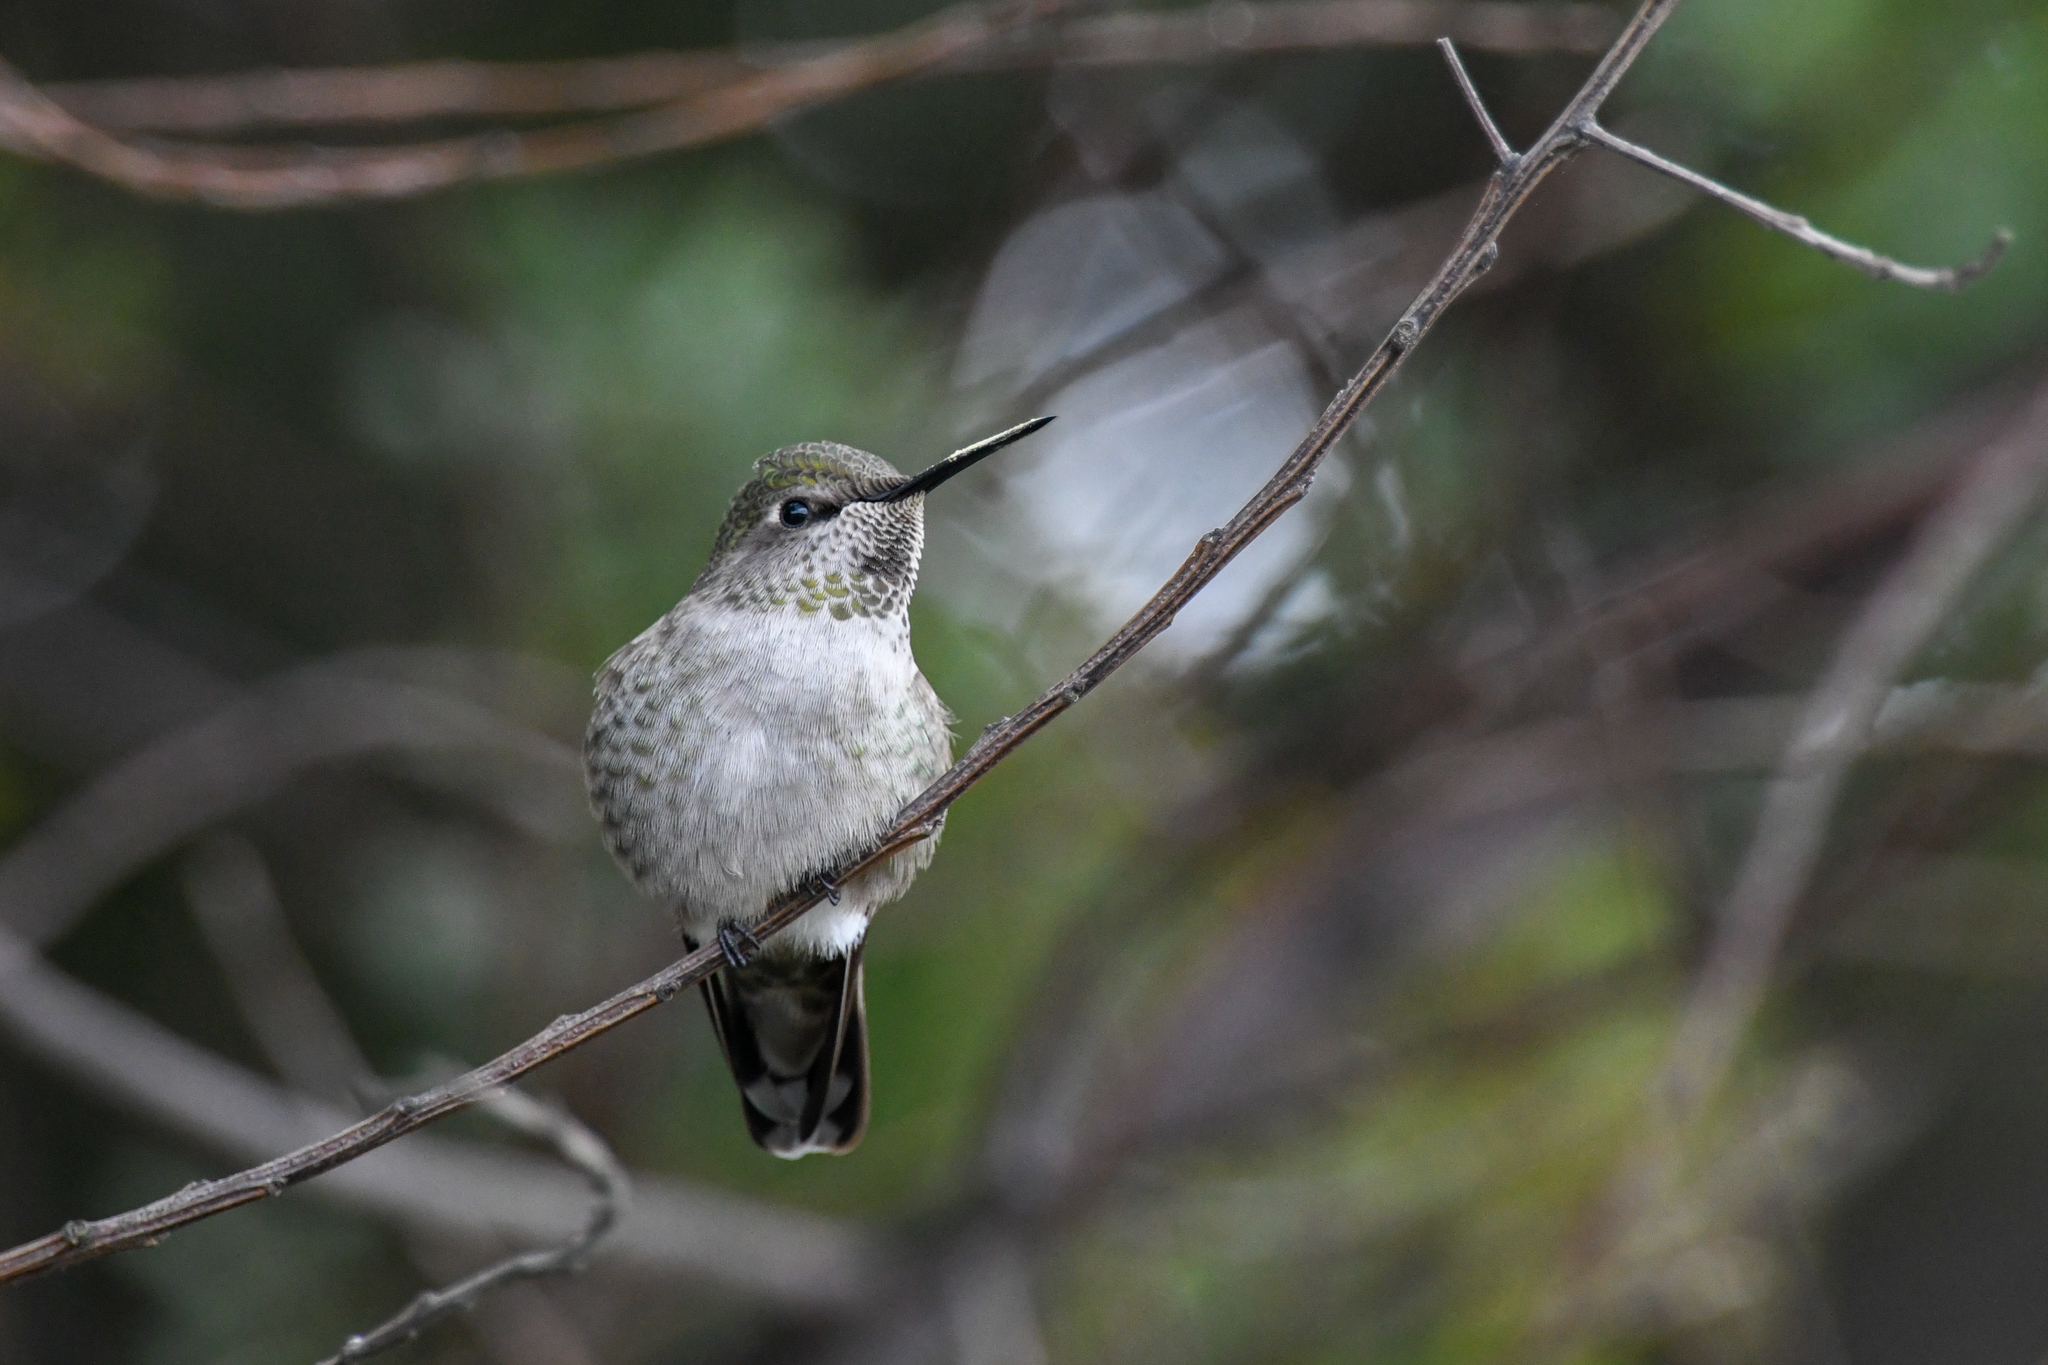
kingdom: Animalia
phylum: Chordata
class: Aves
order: Apodiformes
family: Trochilidae
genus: Calypte
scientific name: Calypte anna
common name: Anna's hummingbird
